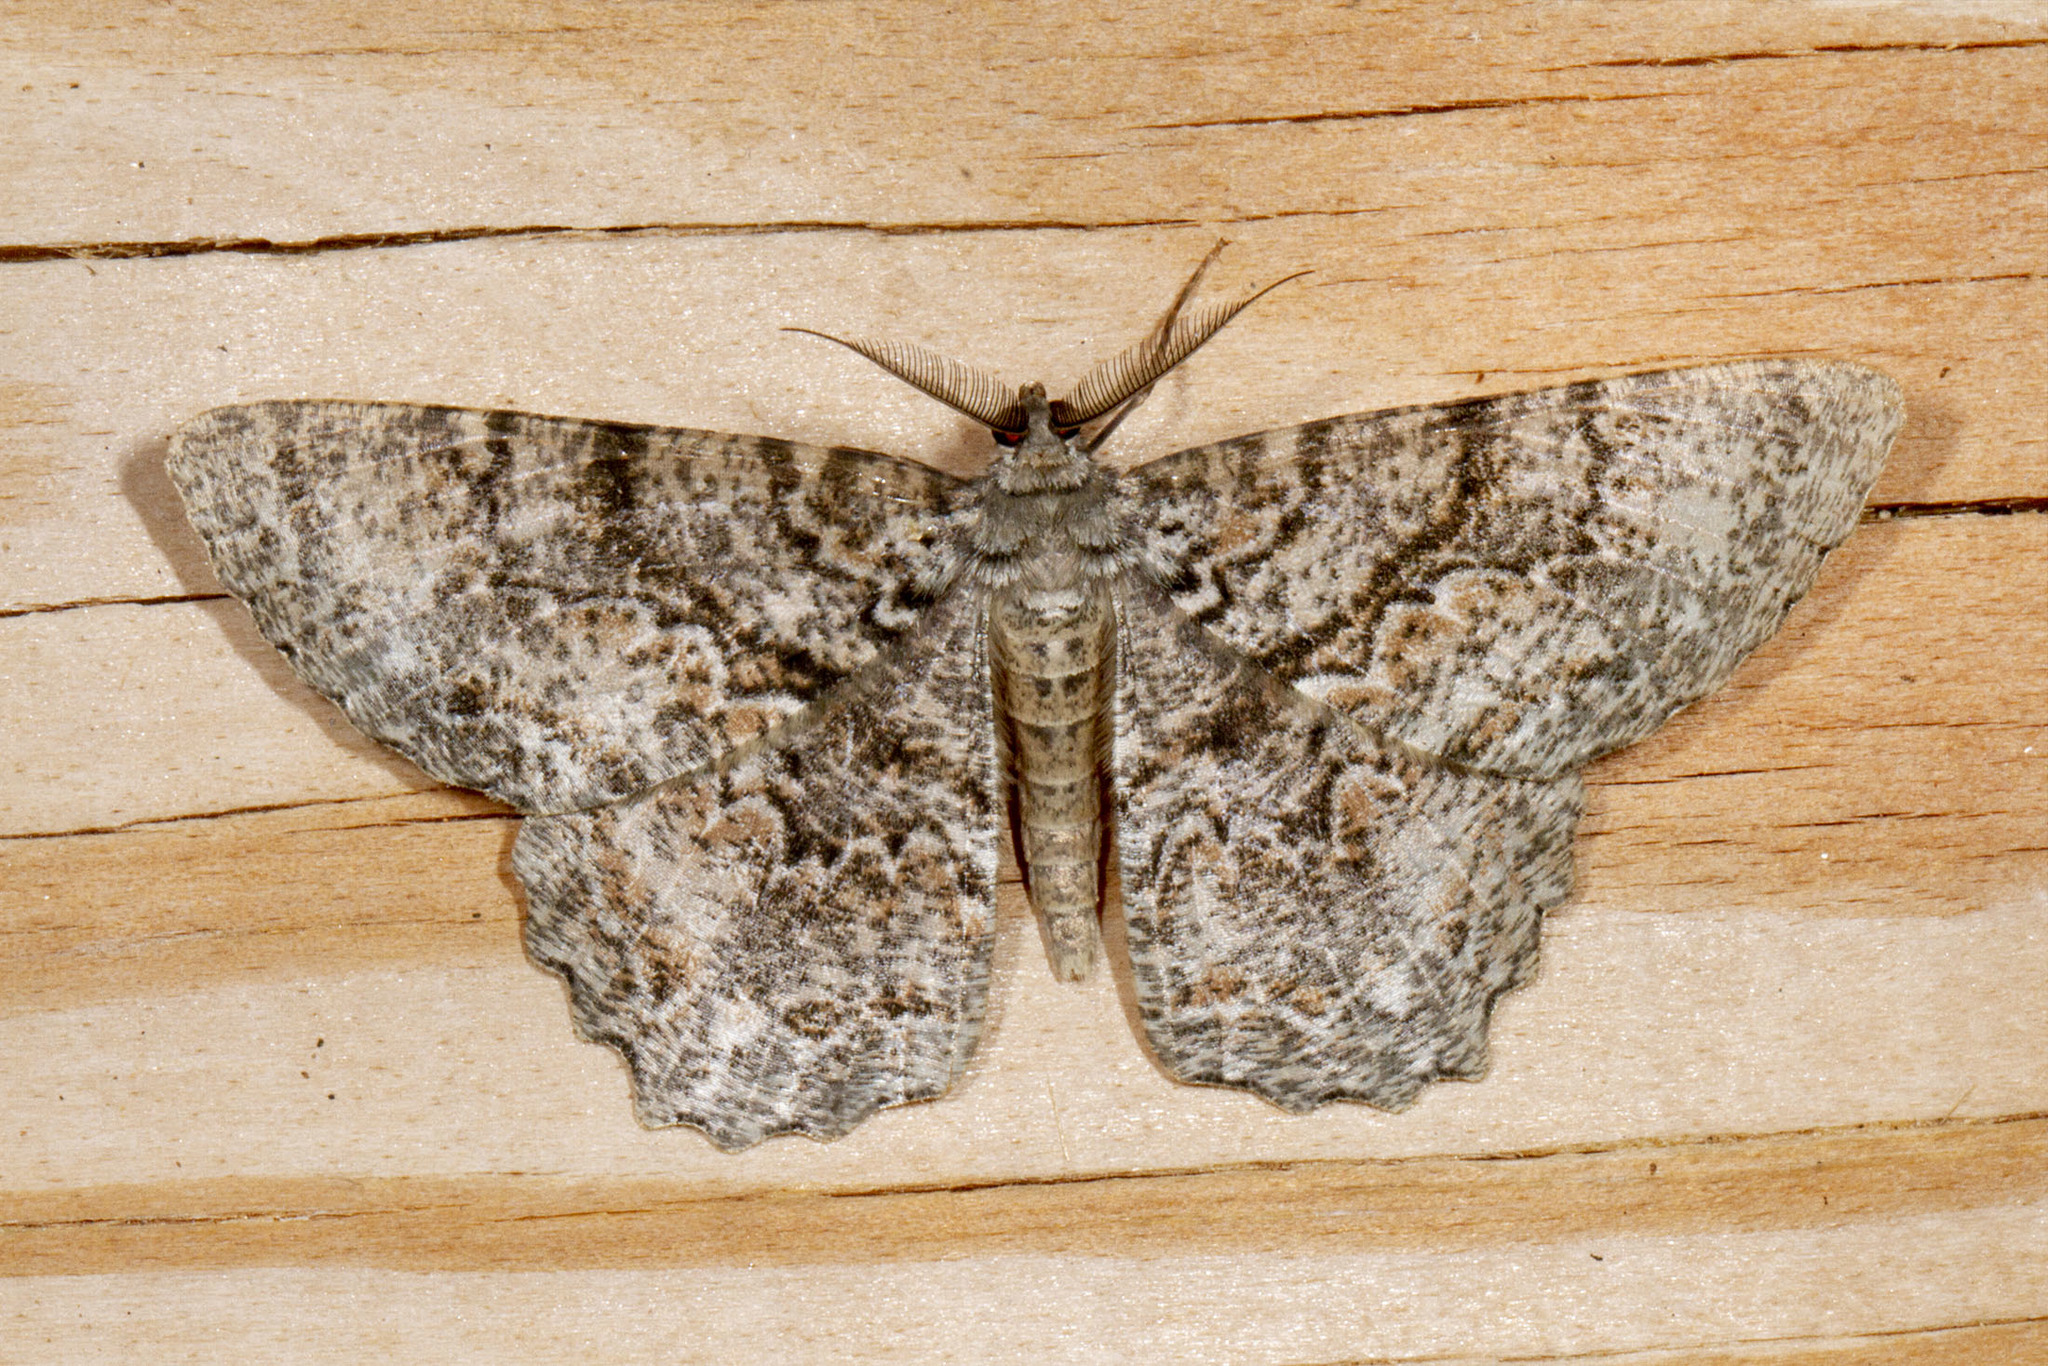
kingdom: Animalia
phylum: Arthropoda
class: Insecta
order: Lepidoptera
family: Geometridae
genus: Epimecis
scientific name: Epimecis hortaria
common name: Tulip-tree beauty
